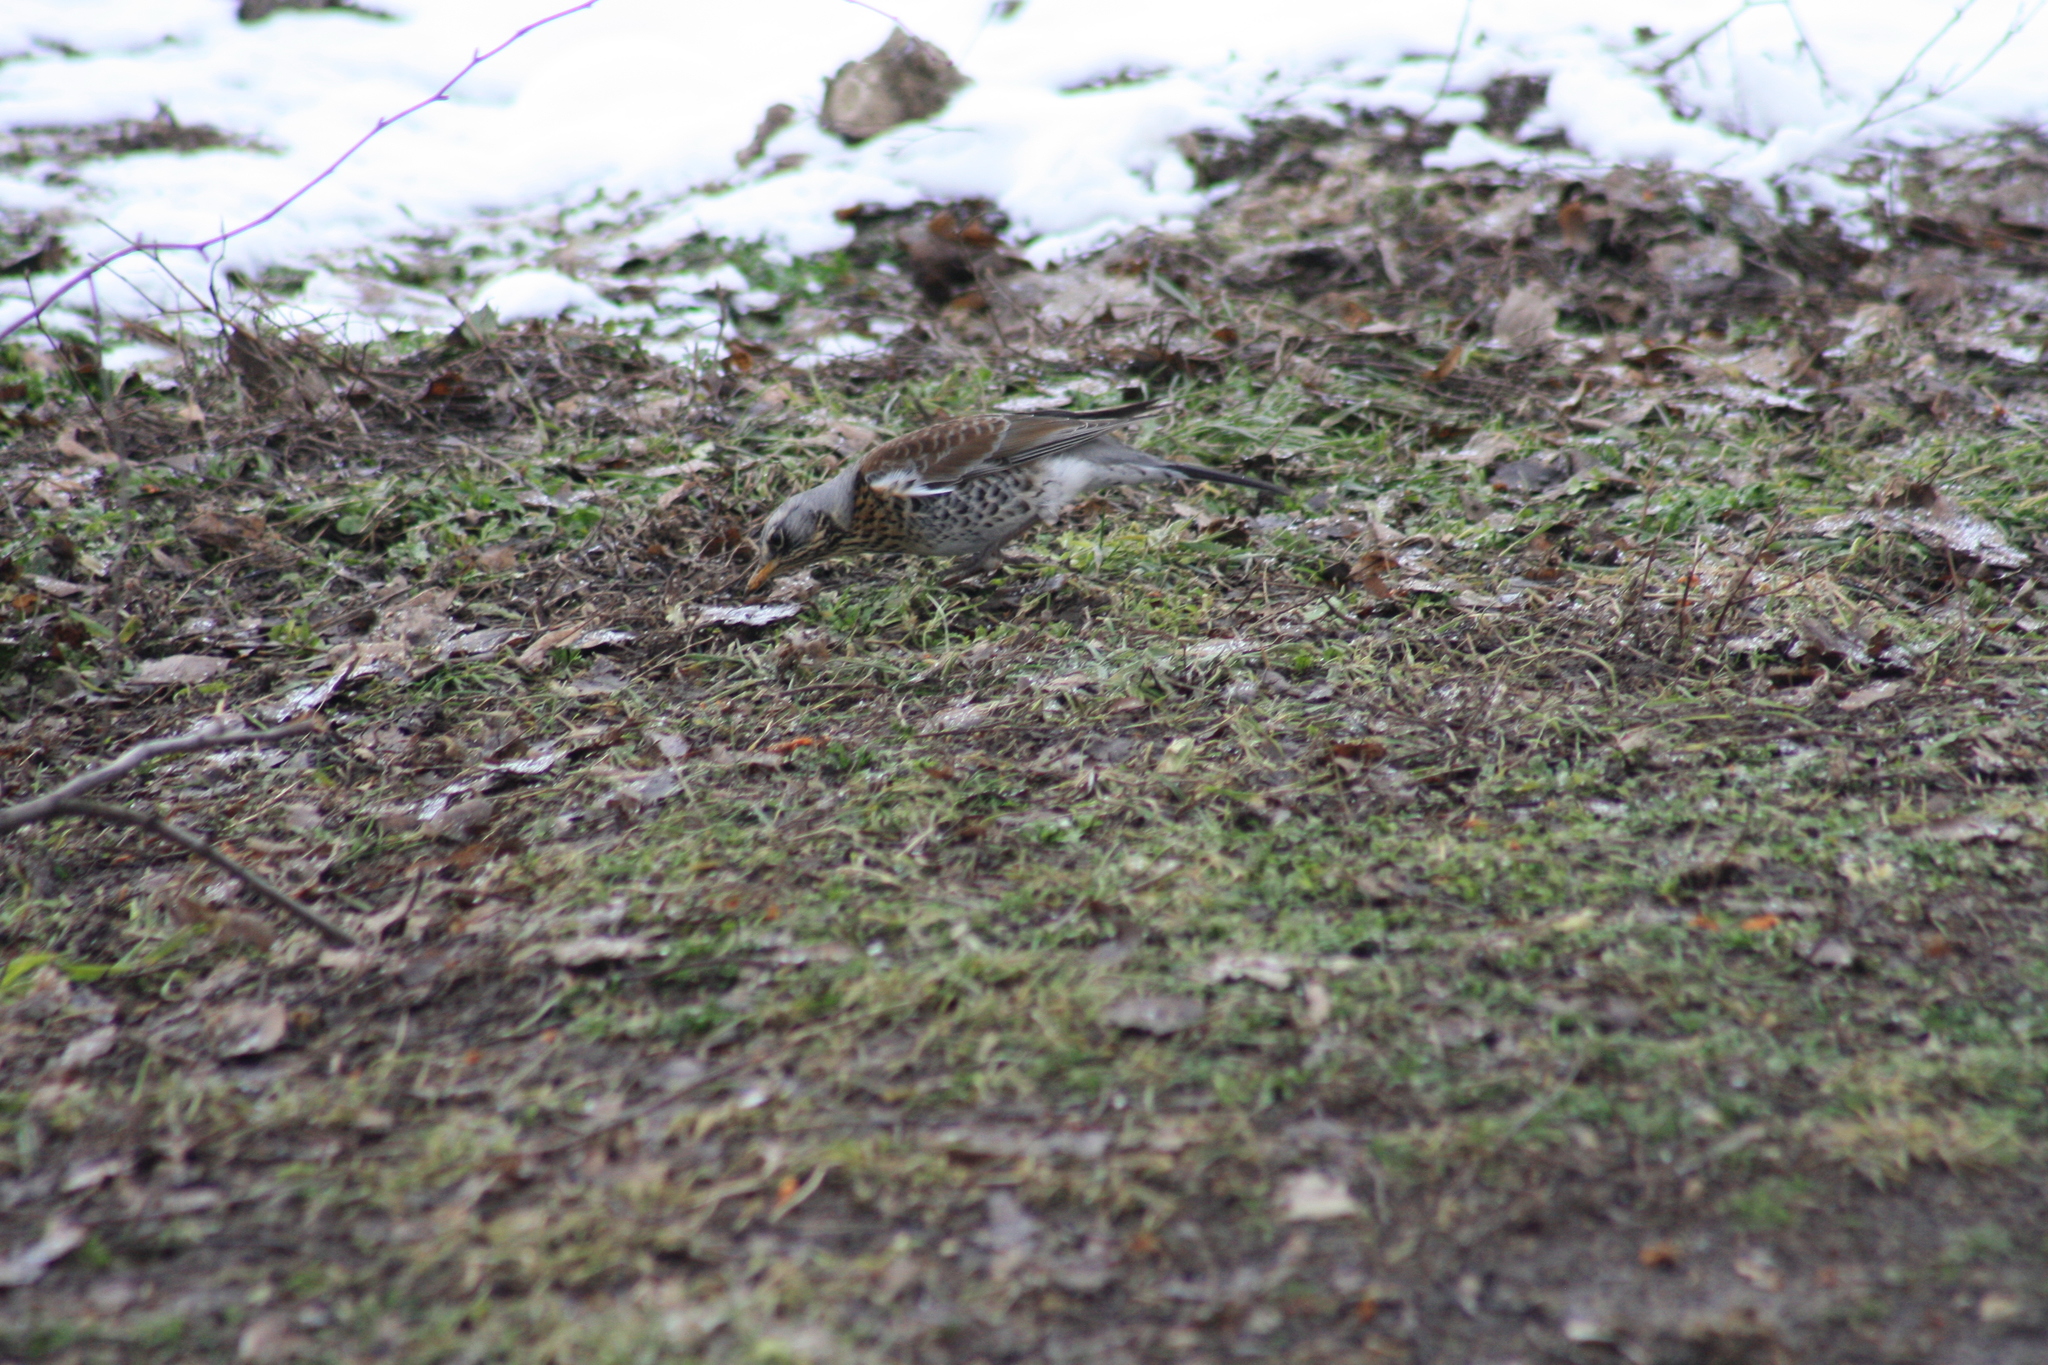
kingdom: Animalia
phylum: Chordata
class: Aves
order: Passeriformes
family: Turdidae
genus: Turdus
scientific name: Turdus pilaris
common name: Fieldfare
